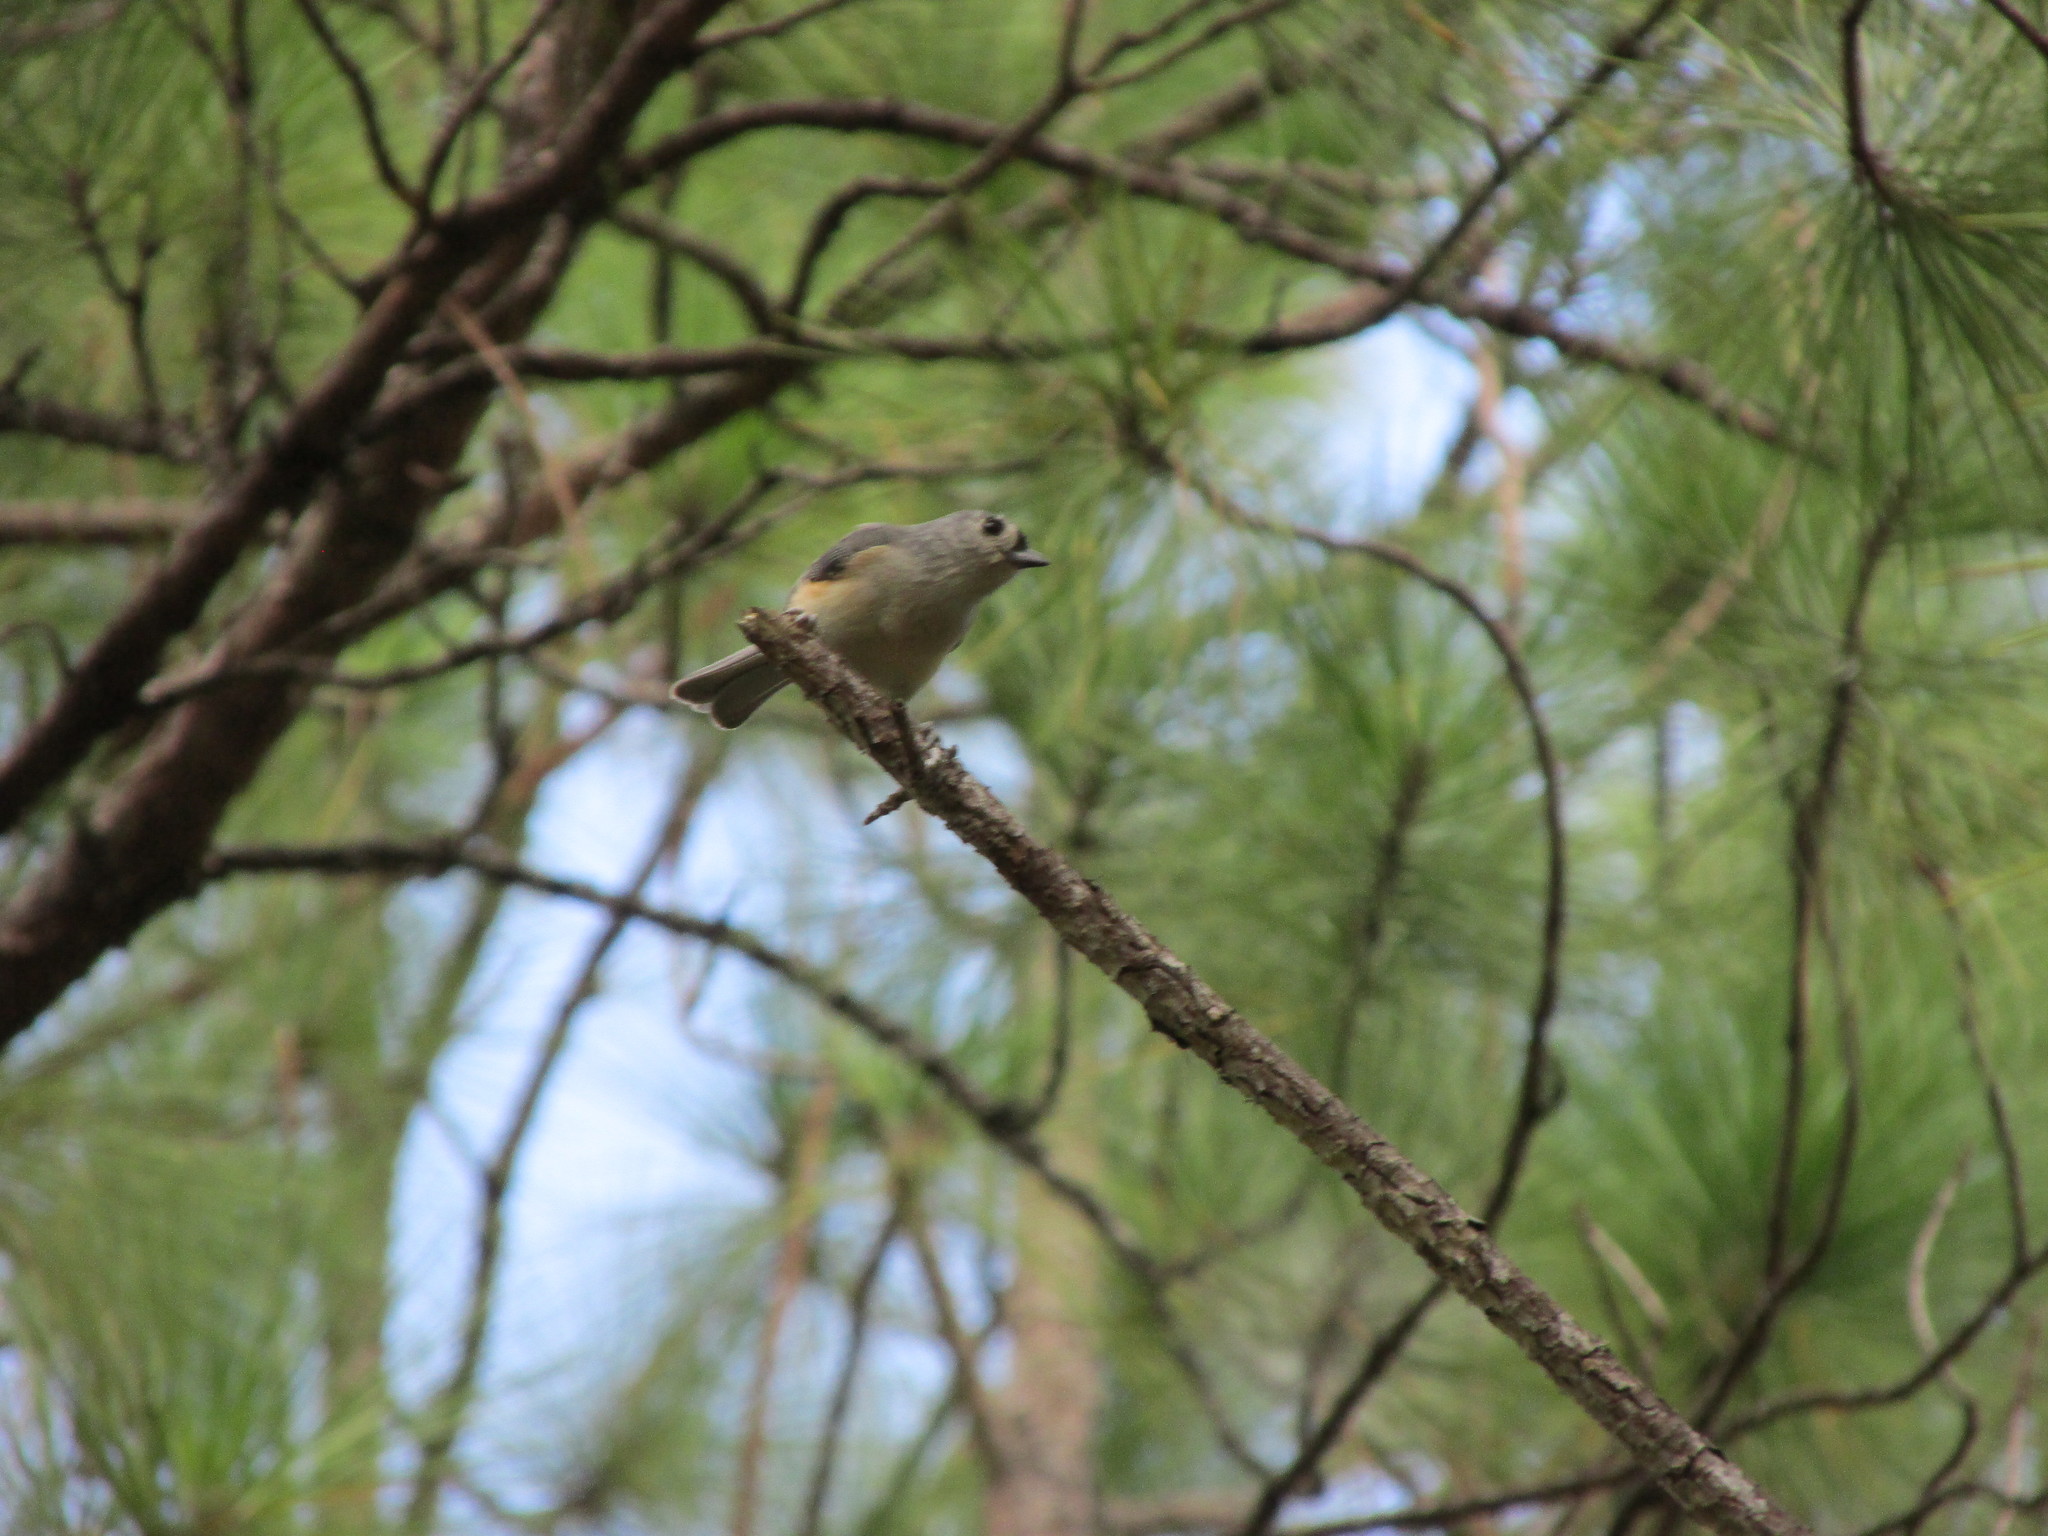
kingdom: Animalia
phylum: Chordata
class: Aves
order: Passeriformes
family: Paridae
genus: Baeolophus
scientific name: Baeolophus bicolor
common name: Tufted titmouse
